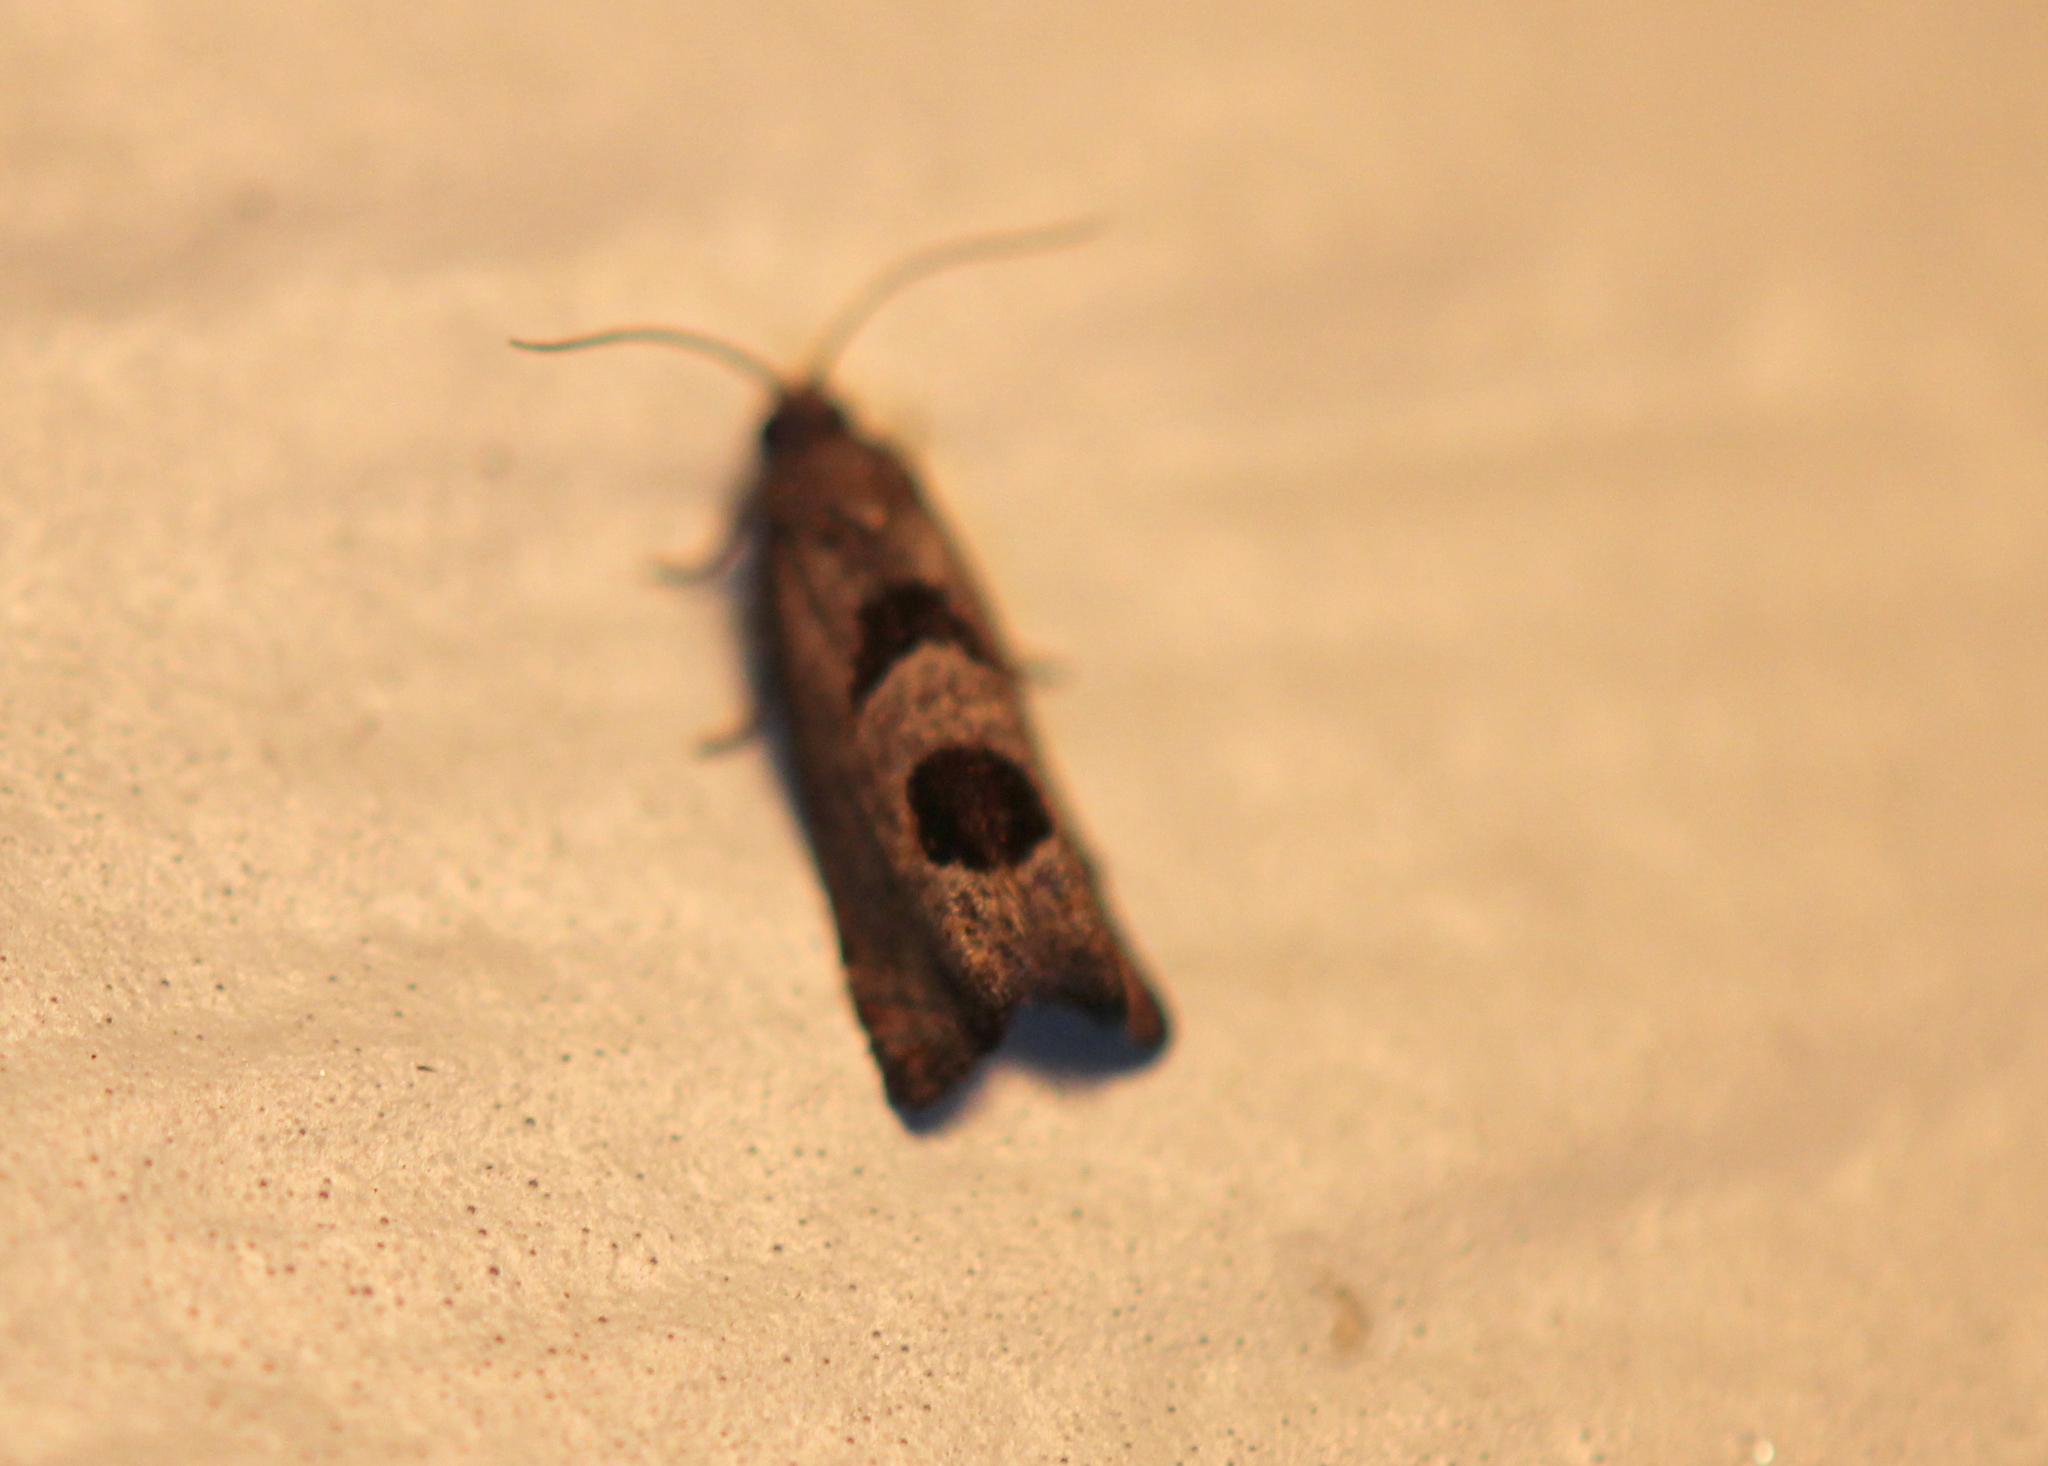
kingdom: Animalia
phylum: Arthropoda
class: Insecta
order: Lepidoptera
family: Tortricidae
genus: Eucosma
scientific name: Eucosma tomonana
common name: Aster-head eucosma moth
